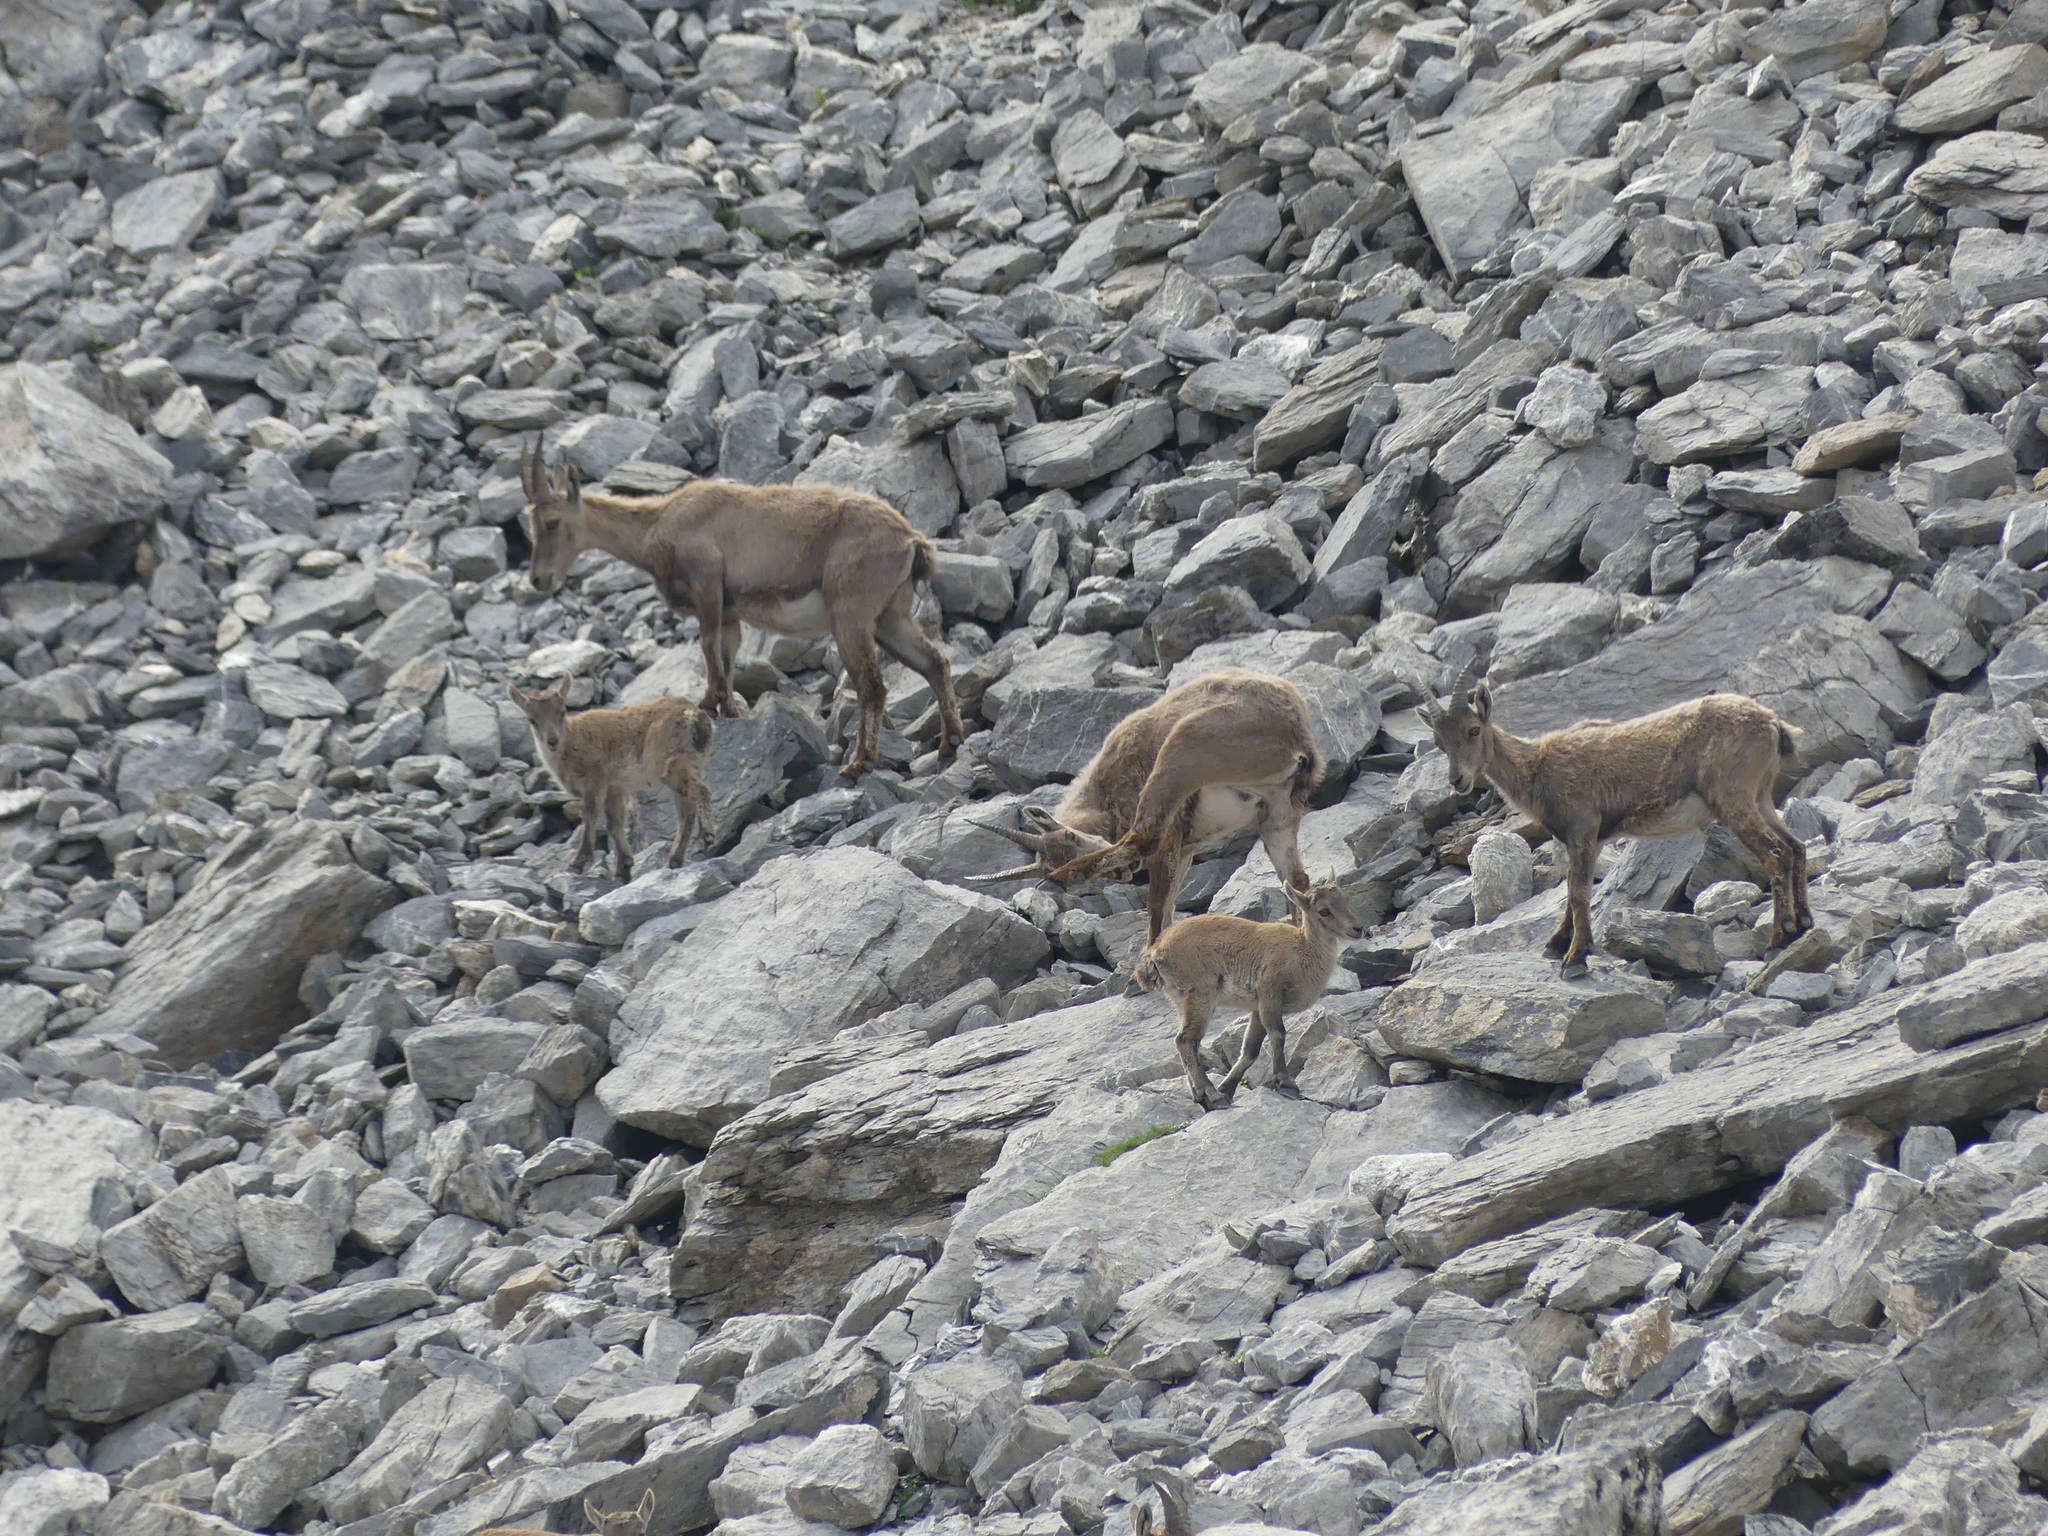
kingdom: Animalia
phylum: Chordata
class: Mammalia
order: Artiodactyla
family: Bovidae
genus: Capra
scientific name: Capra ibex
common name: Alpine ibex
